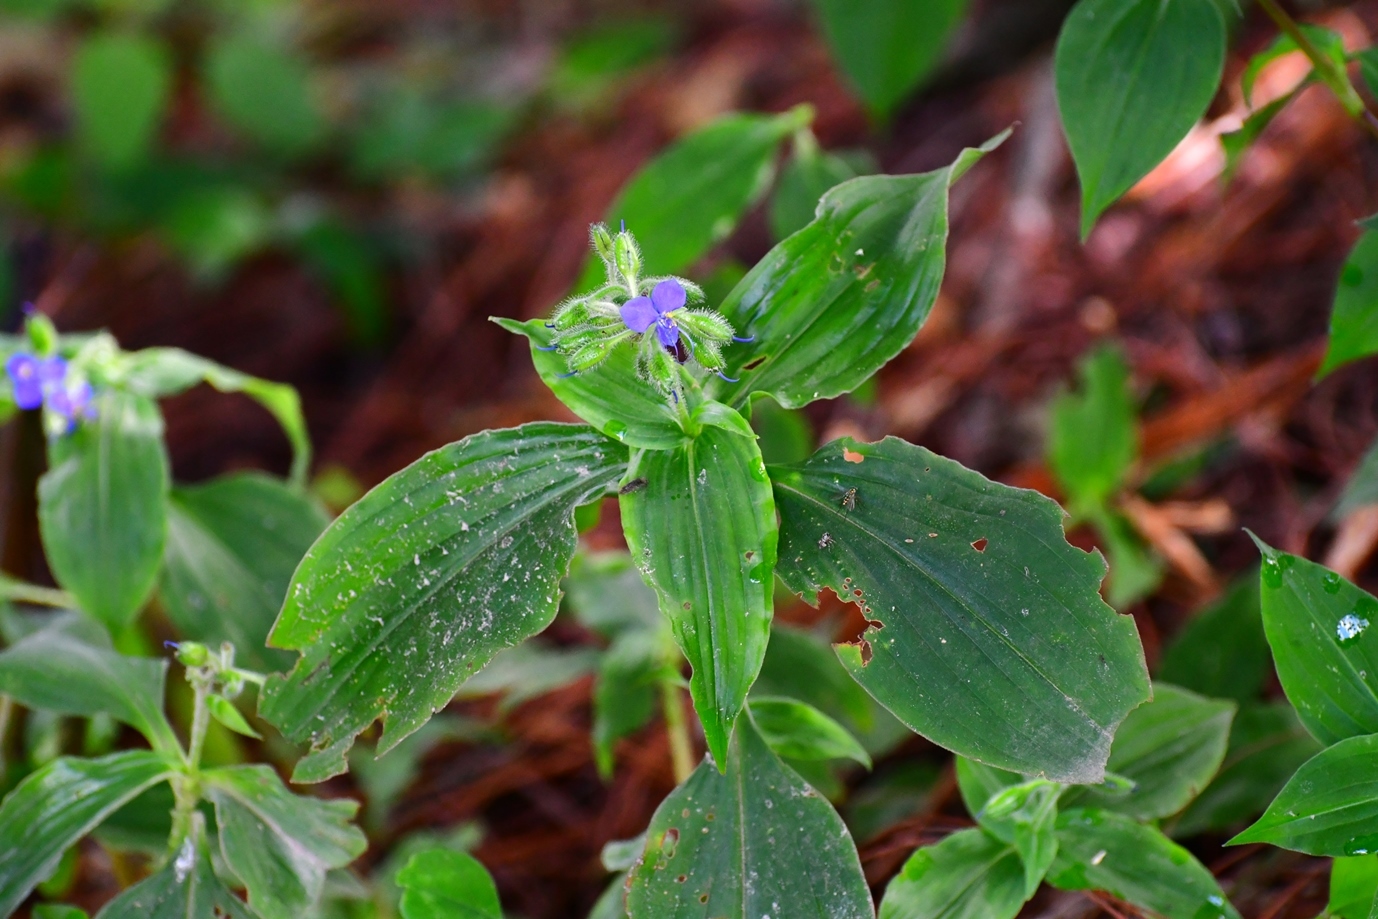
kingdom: Plantae
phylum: Tracheophyta
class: Liliopsida
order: Commelinales
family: Commelinaceae
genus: Tinantia
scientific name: Tinantia erecta
